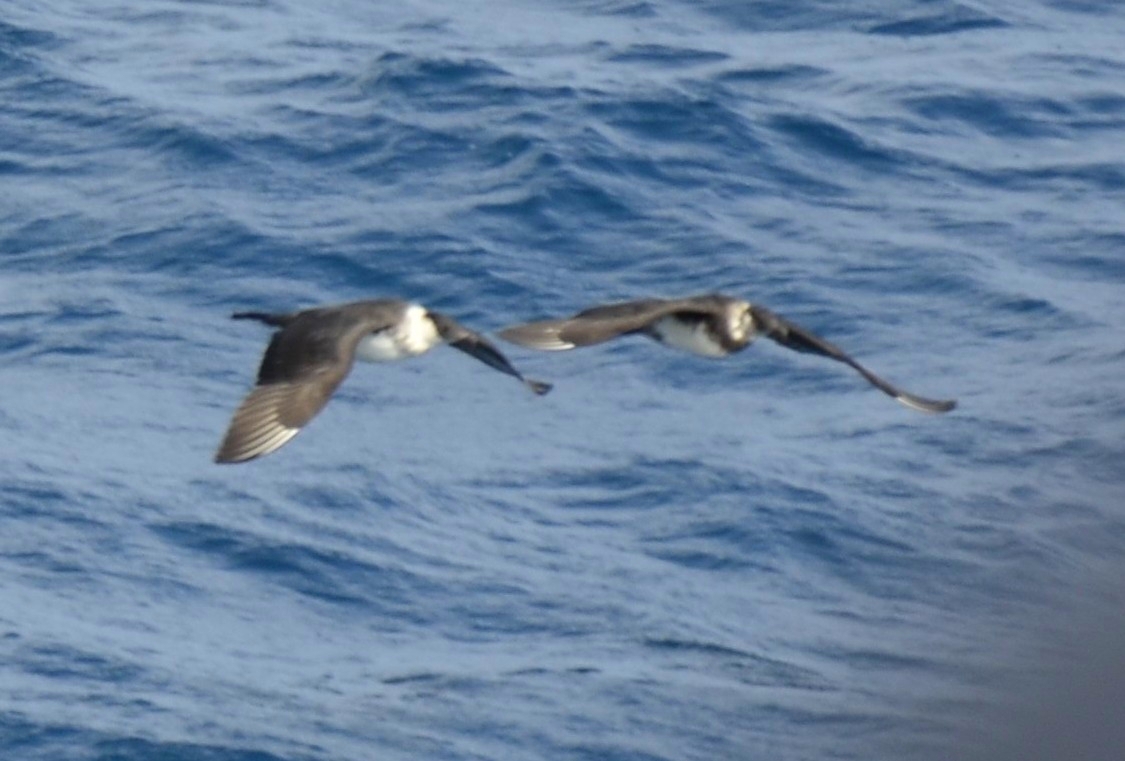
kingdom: Animalia
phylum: Chordata
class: Aves
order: Charadriiformes
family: Stercorariidae
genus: Stercorarius
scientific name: Stercorarius pomarinus
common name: Pomarine jaeger
